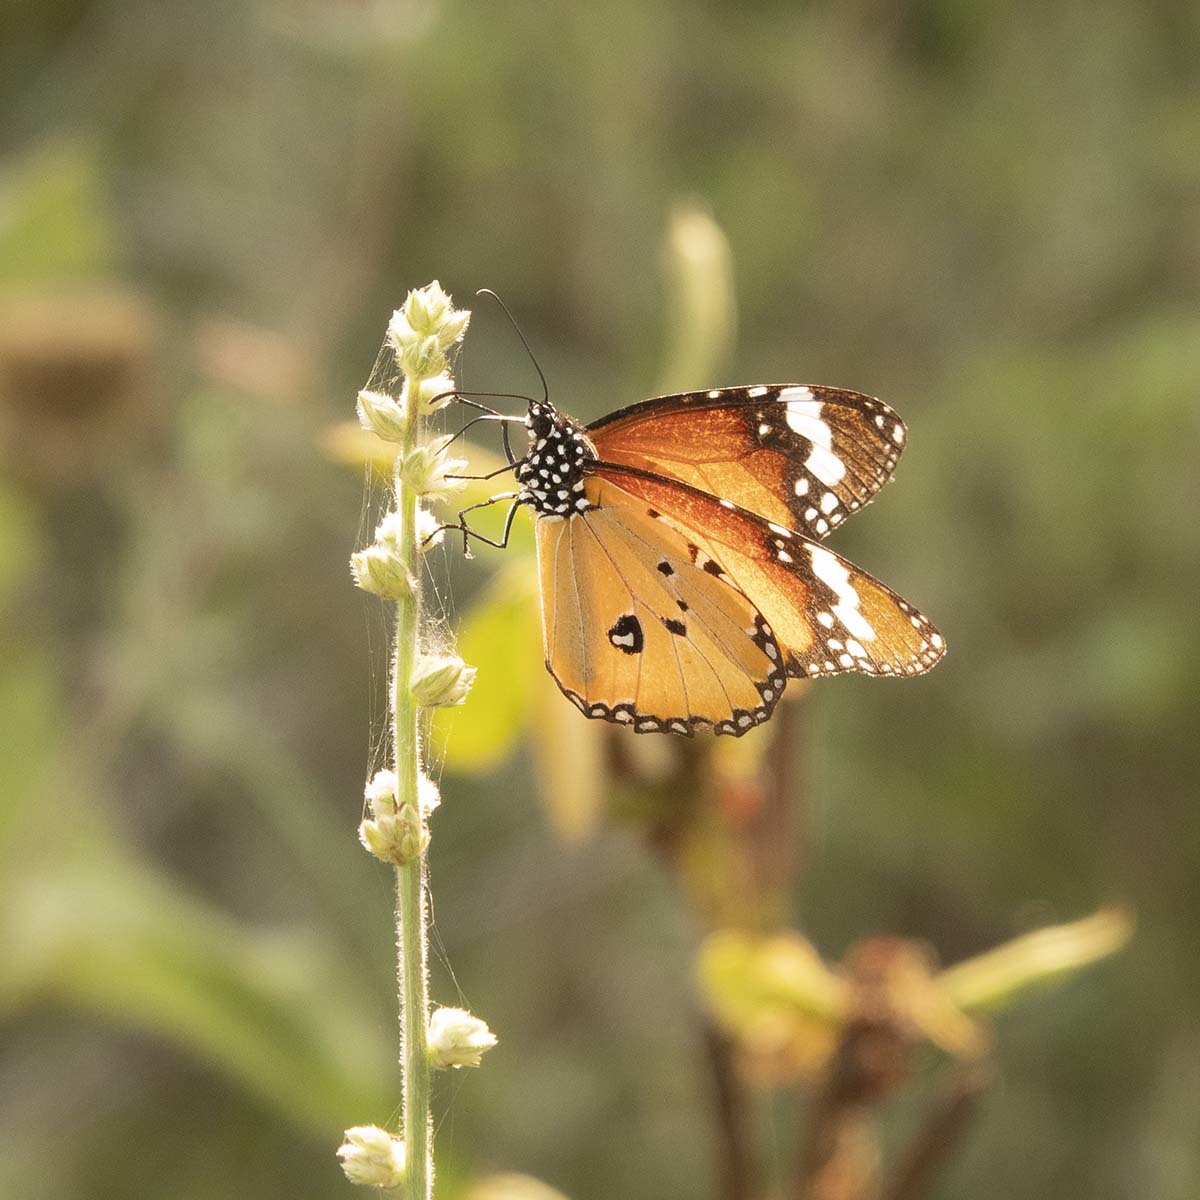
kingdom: Animalia
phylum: Arthropoda
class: Insecta
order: Lepidoptera
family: Nymphalidae
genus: Danaus
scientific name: Danaus chrysippus
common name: Plain tiger
